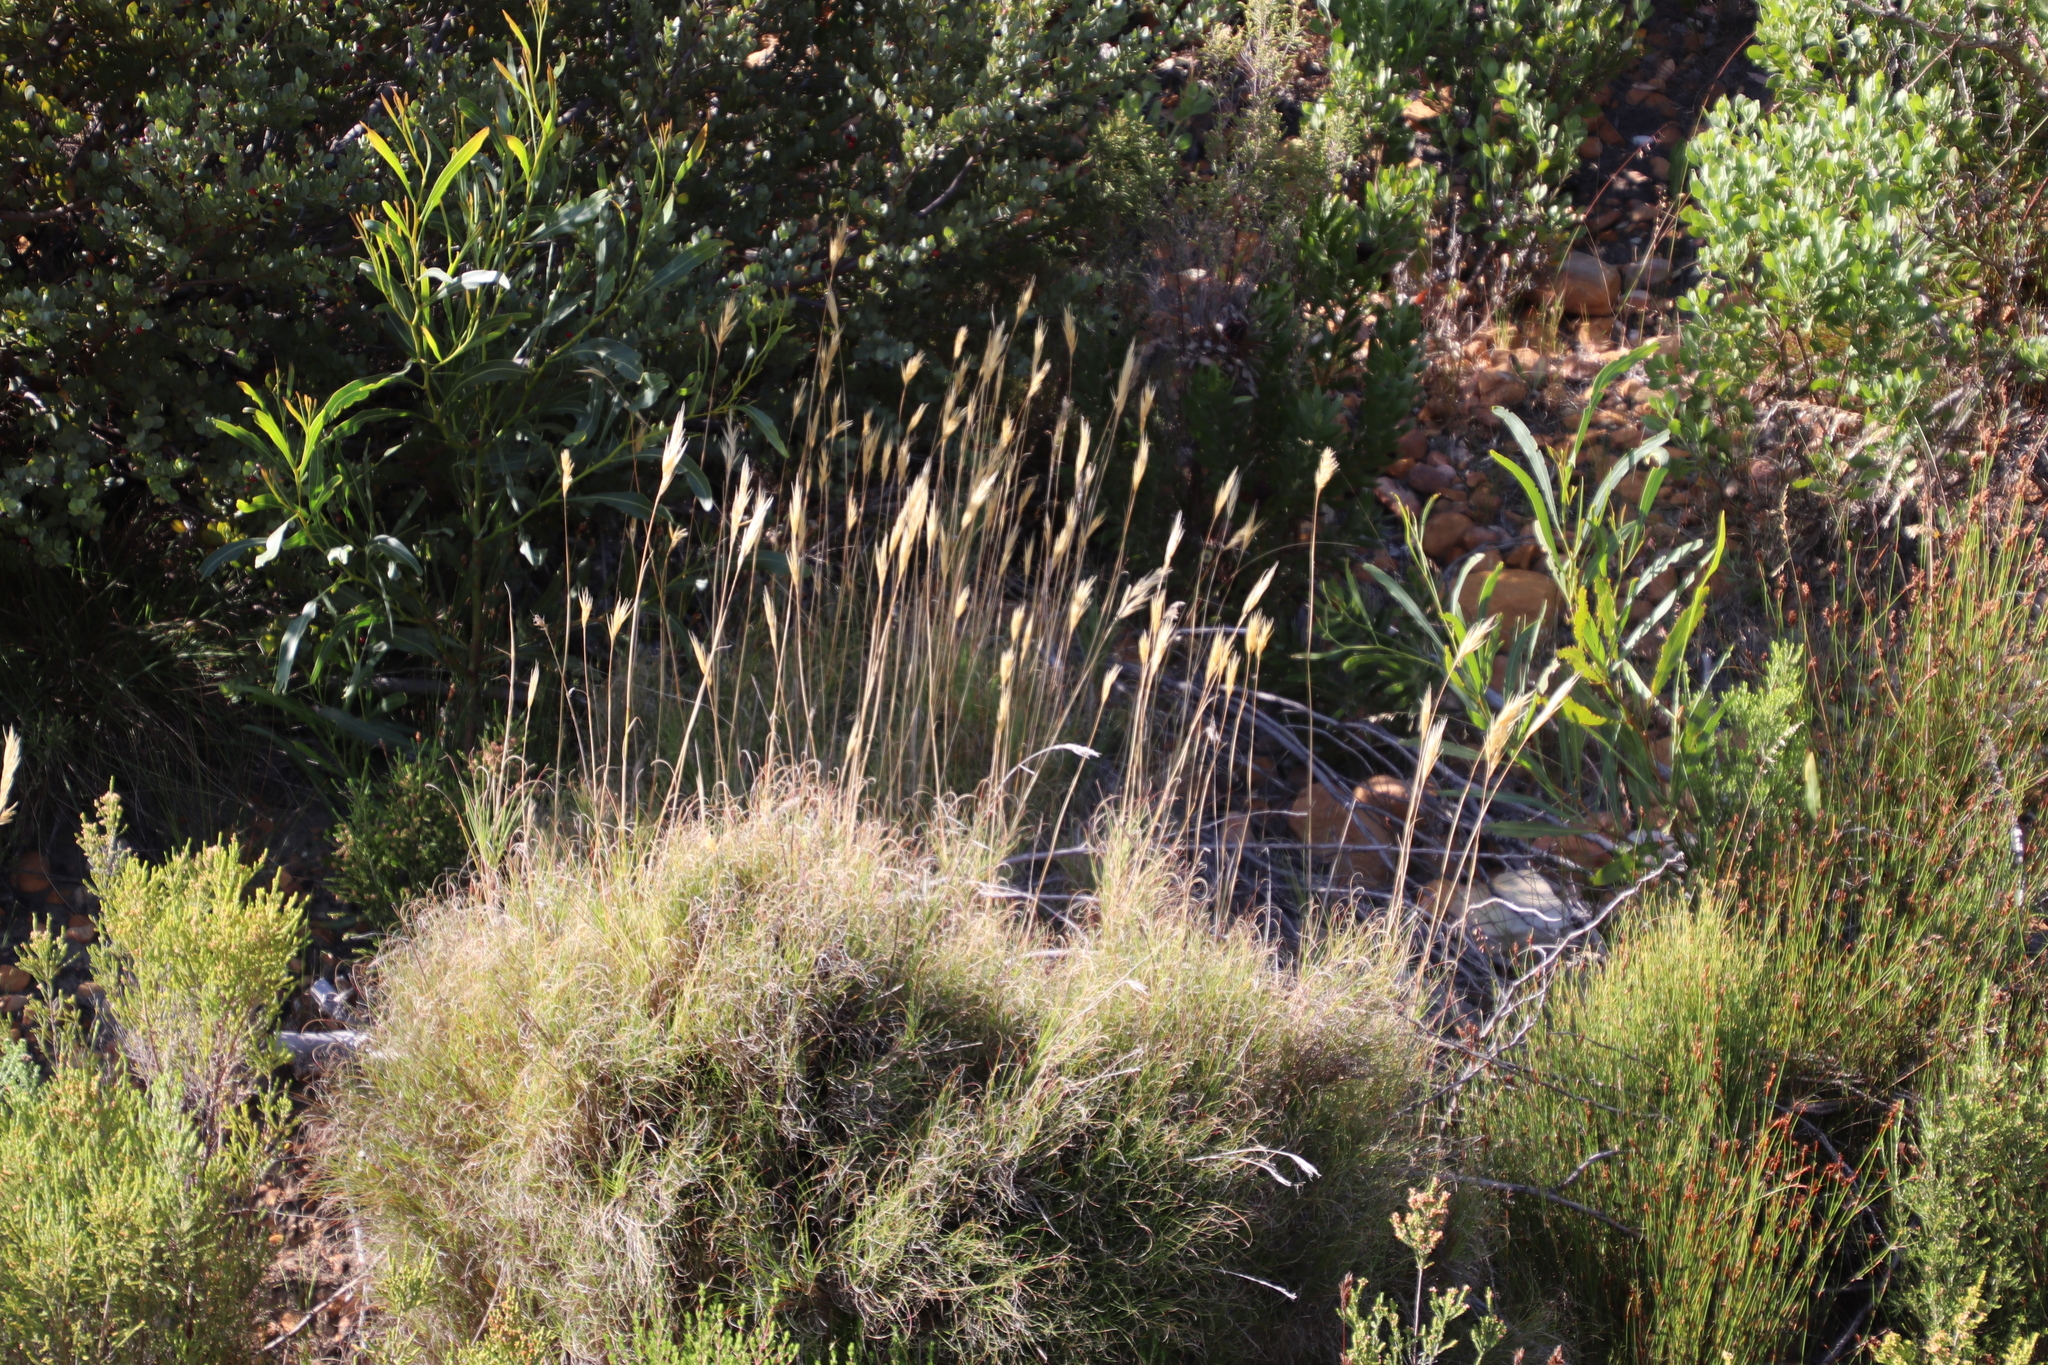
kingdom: Plantae
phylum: Tracheophyta
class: Liliopsida
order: Poales
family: Poaceae
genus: Pseudopentameris
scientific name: Pseudopentameris macrantha
